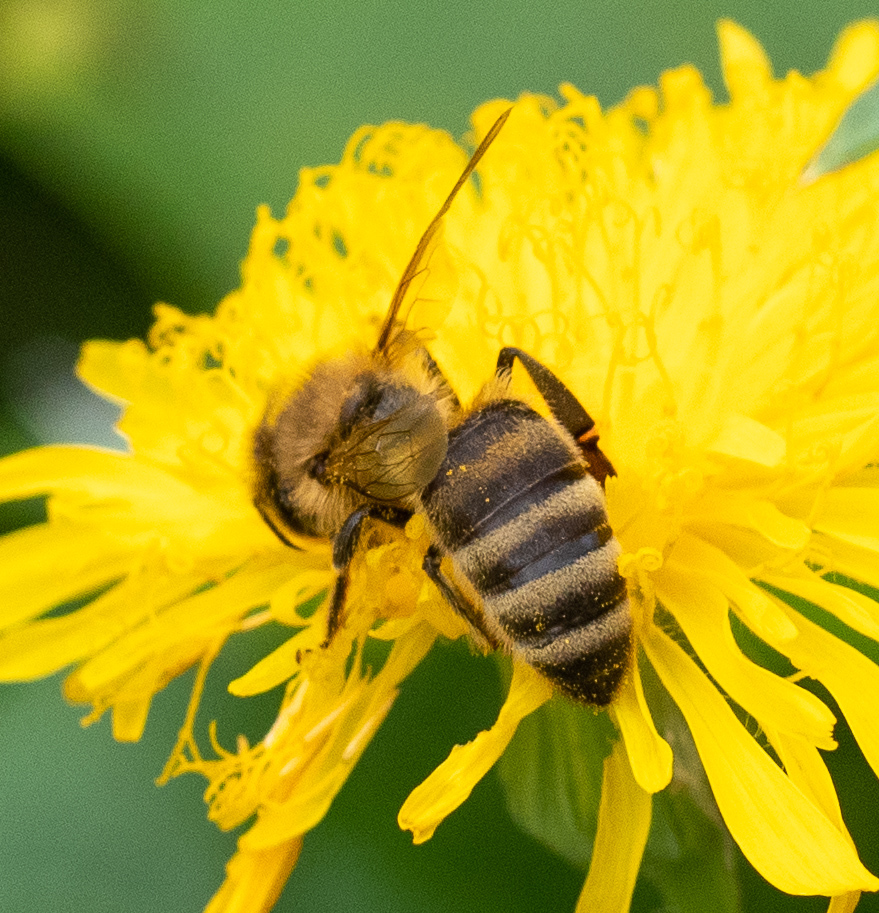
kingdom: Animalia
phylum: Arthropoda
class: Insecta
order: Hymenoptera
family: Apidae
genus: Apis
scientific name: Apis mellifera
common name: Honey bee
